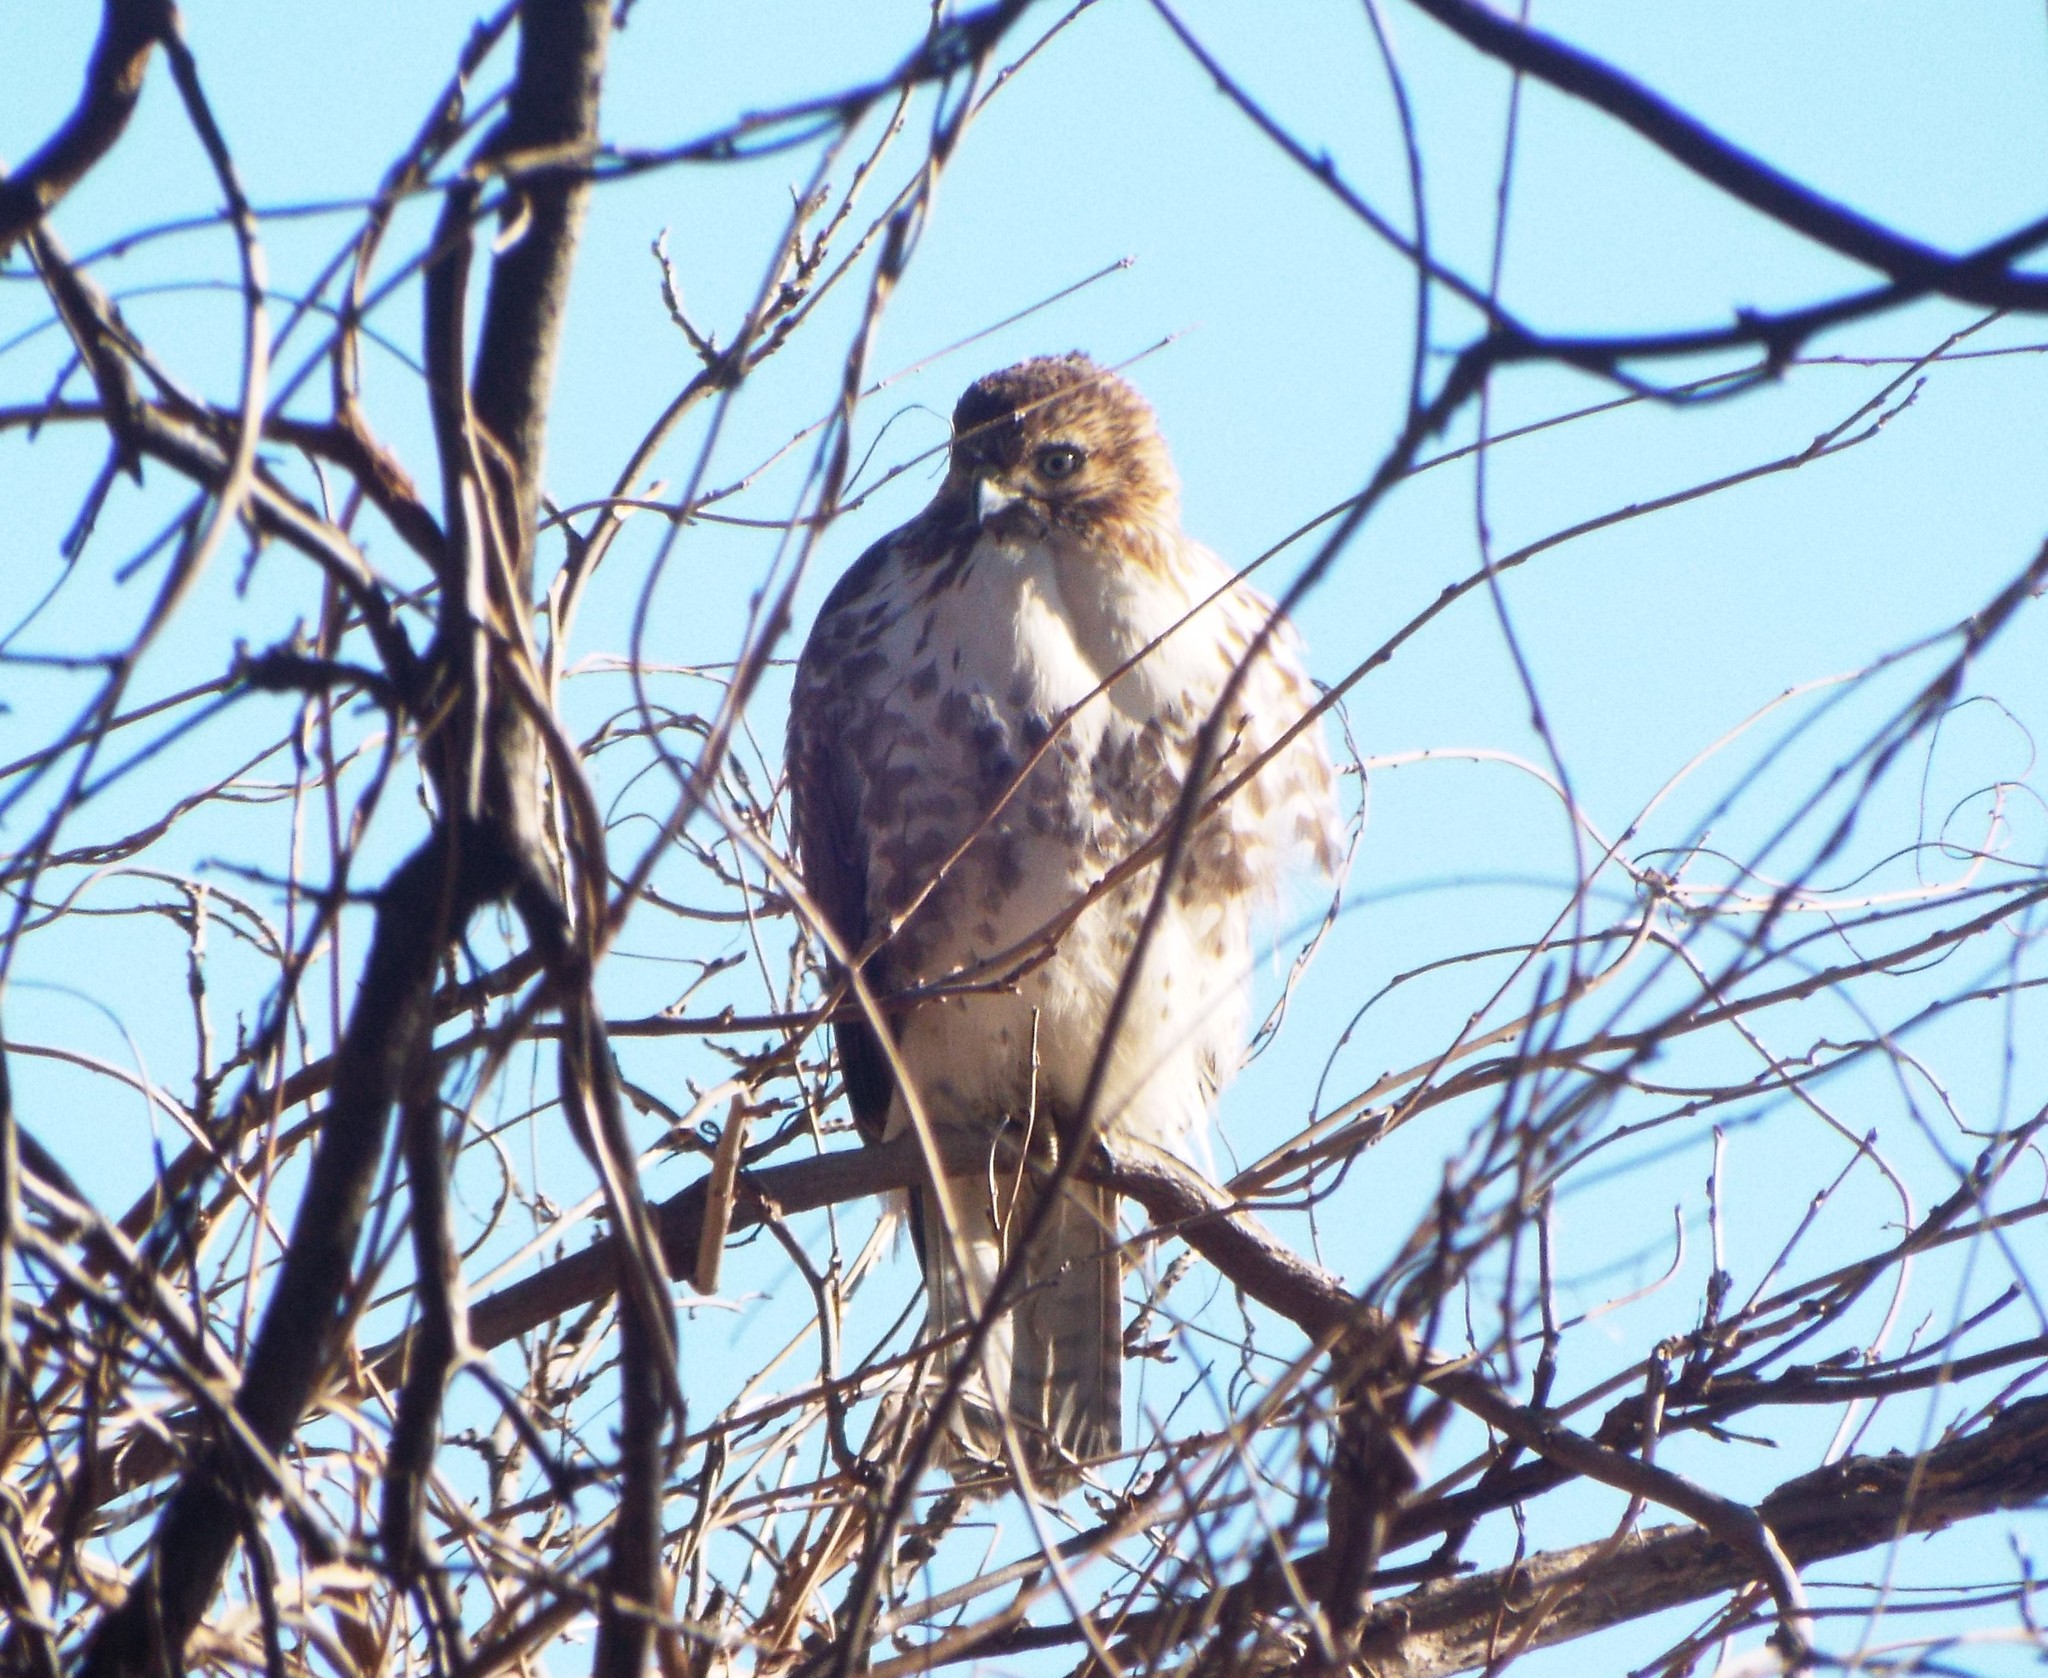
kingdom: Animalia
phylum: Chordata
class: Aves
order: Accipitriformes
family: Accipitridae
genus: Buteo
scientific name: Buteo jamaicensis
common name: Red-tailed hawk
